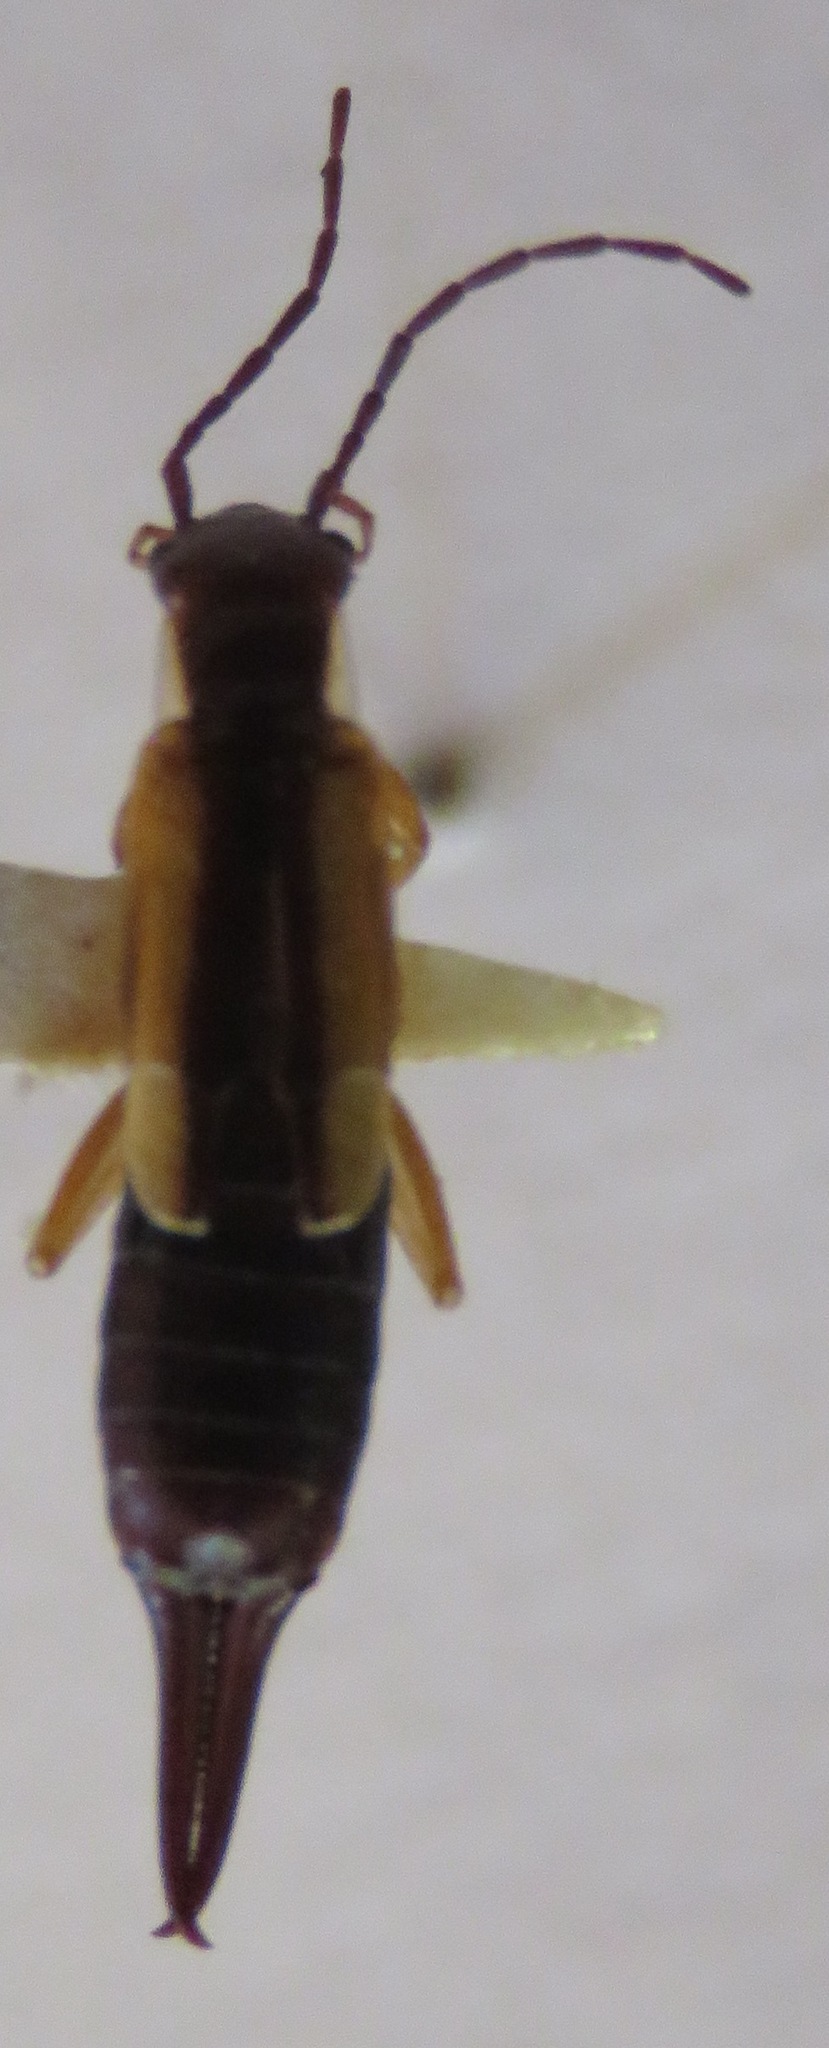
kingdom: Animalia
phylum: Arthropoda
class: Insecta
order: Dermaptera
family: Forficulidae
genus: Doru
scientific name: Doru lineare
